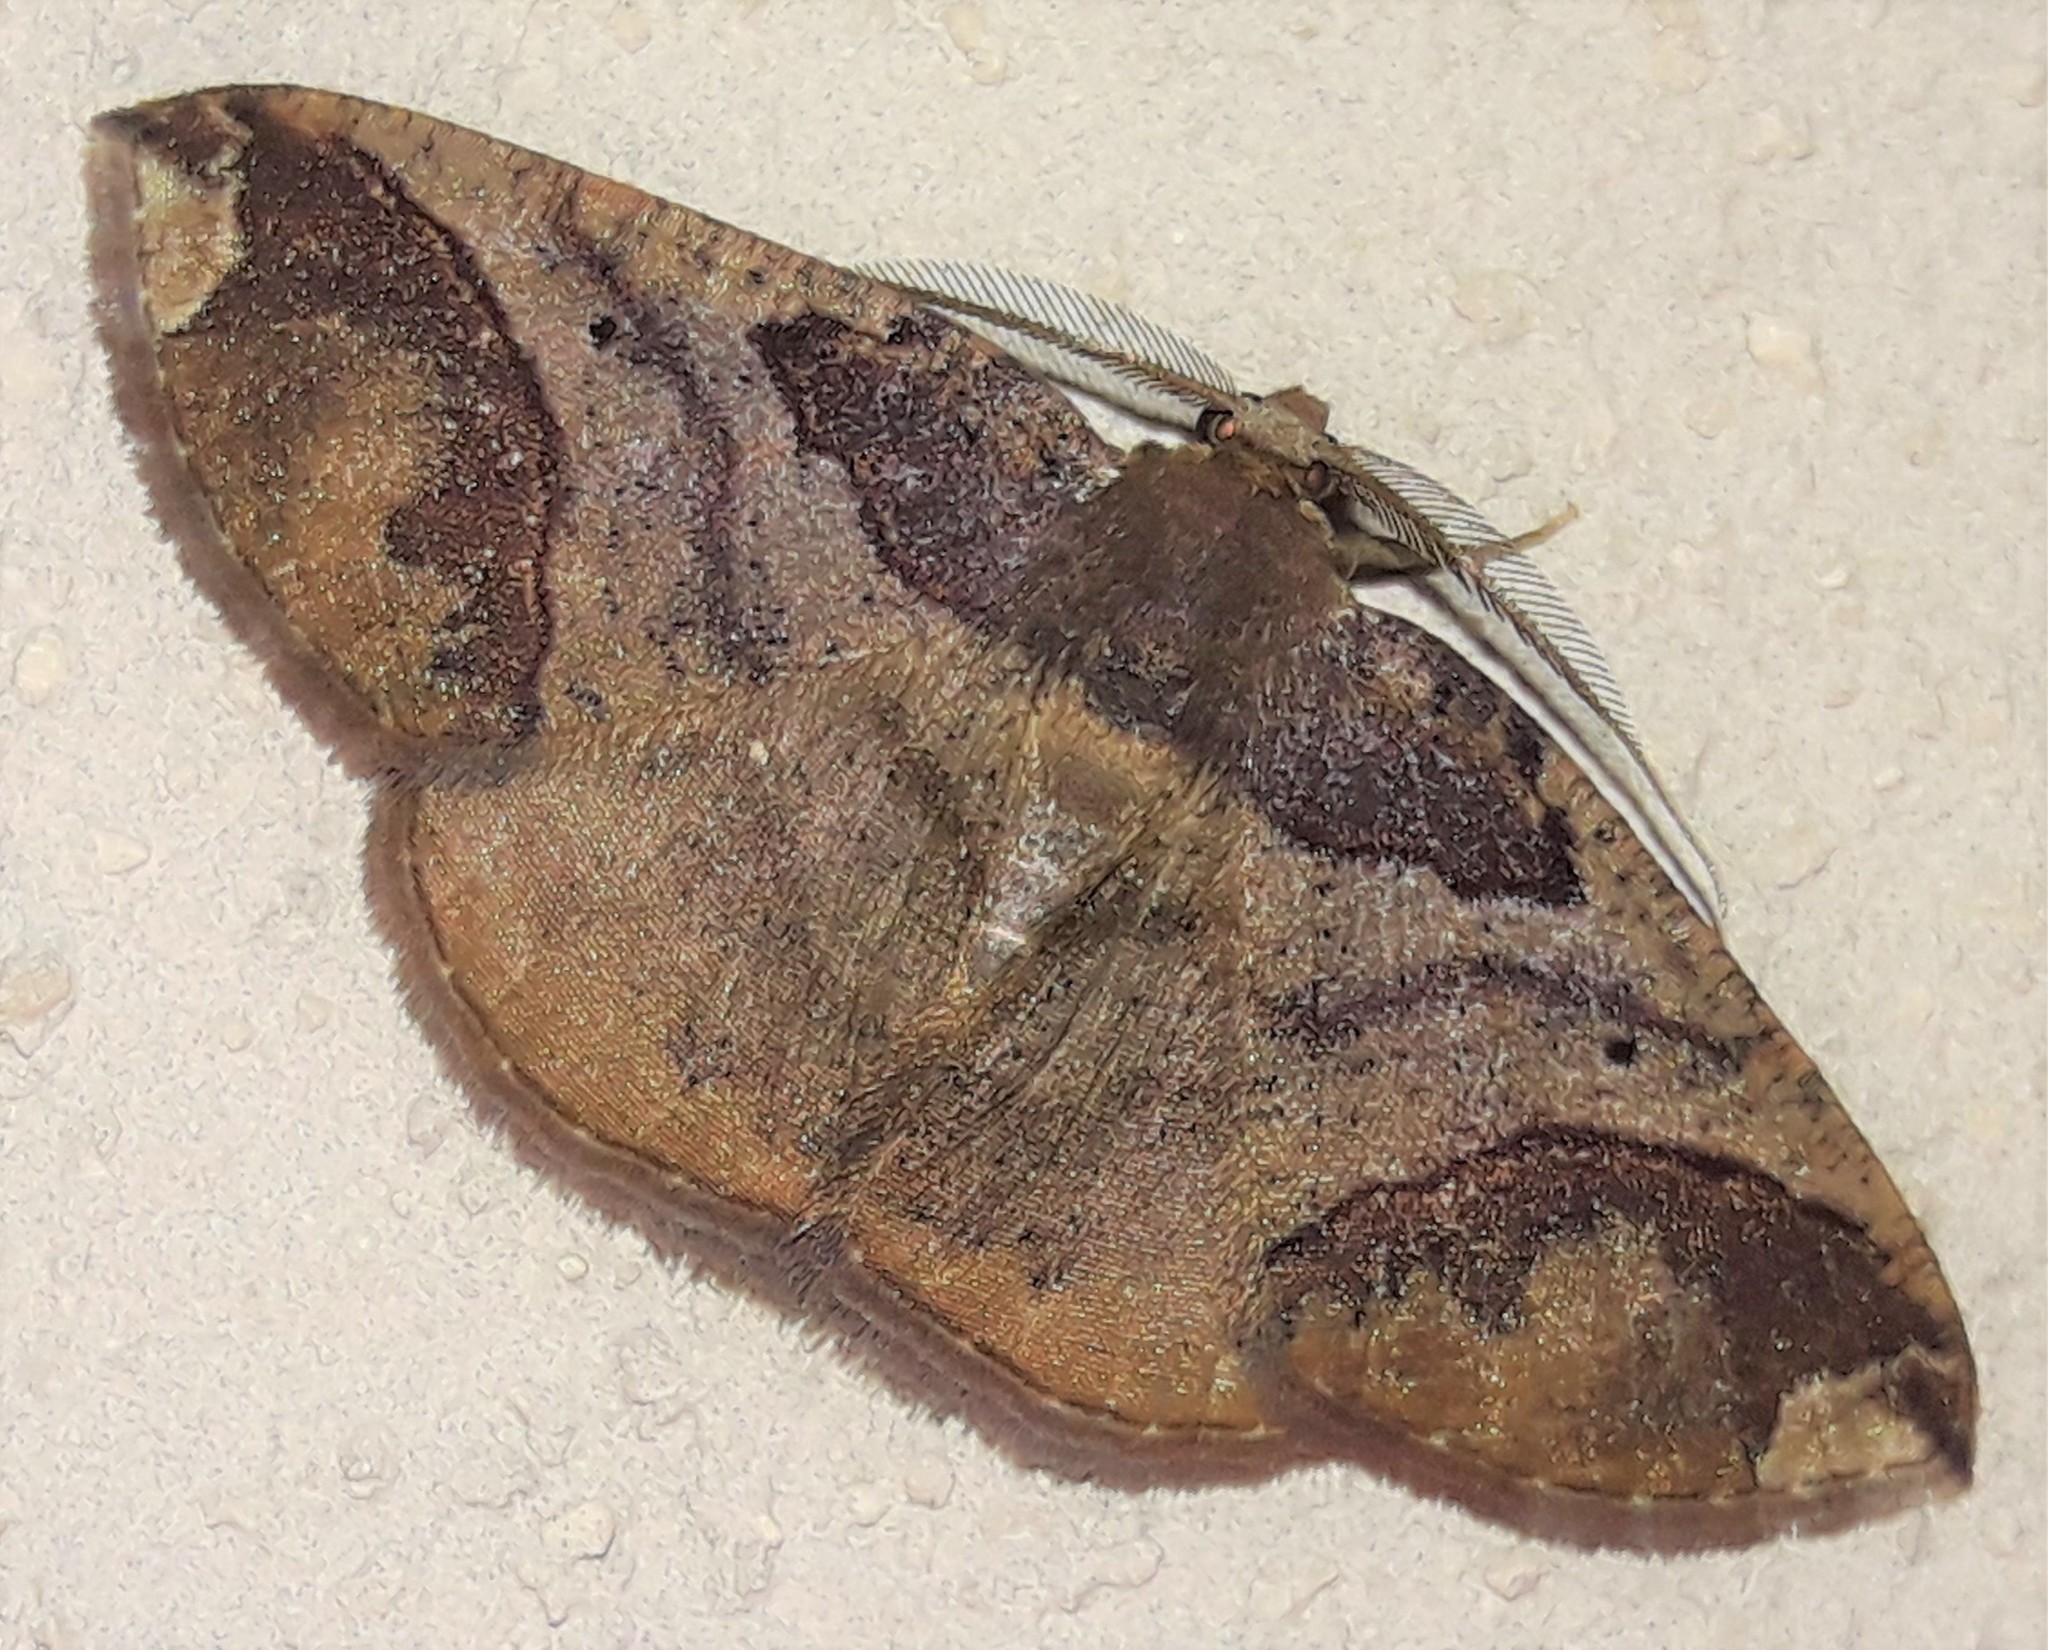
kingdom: Animalia
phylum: Arthropoda
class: Insecta
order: Lepidoptera
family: Geometridae
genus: Perissopteryx
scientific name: Perissopteryx commendata
